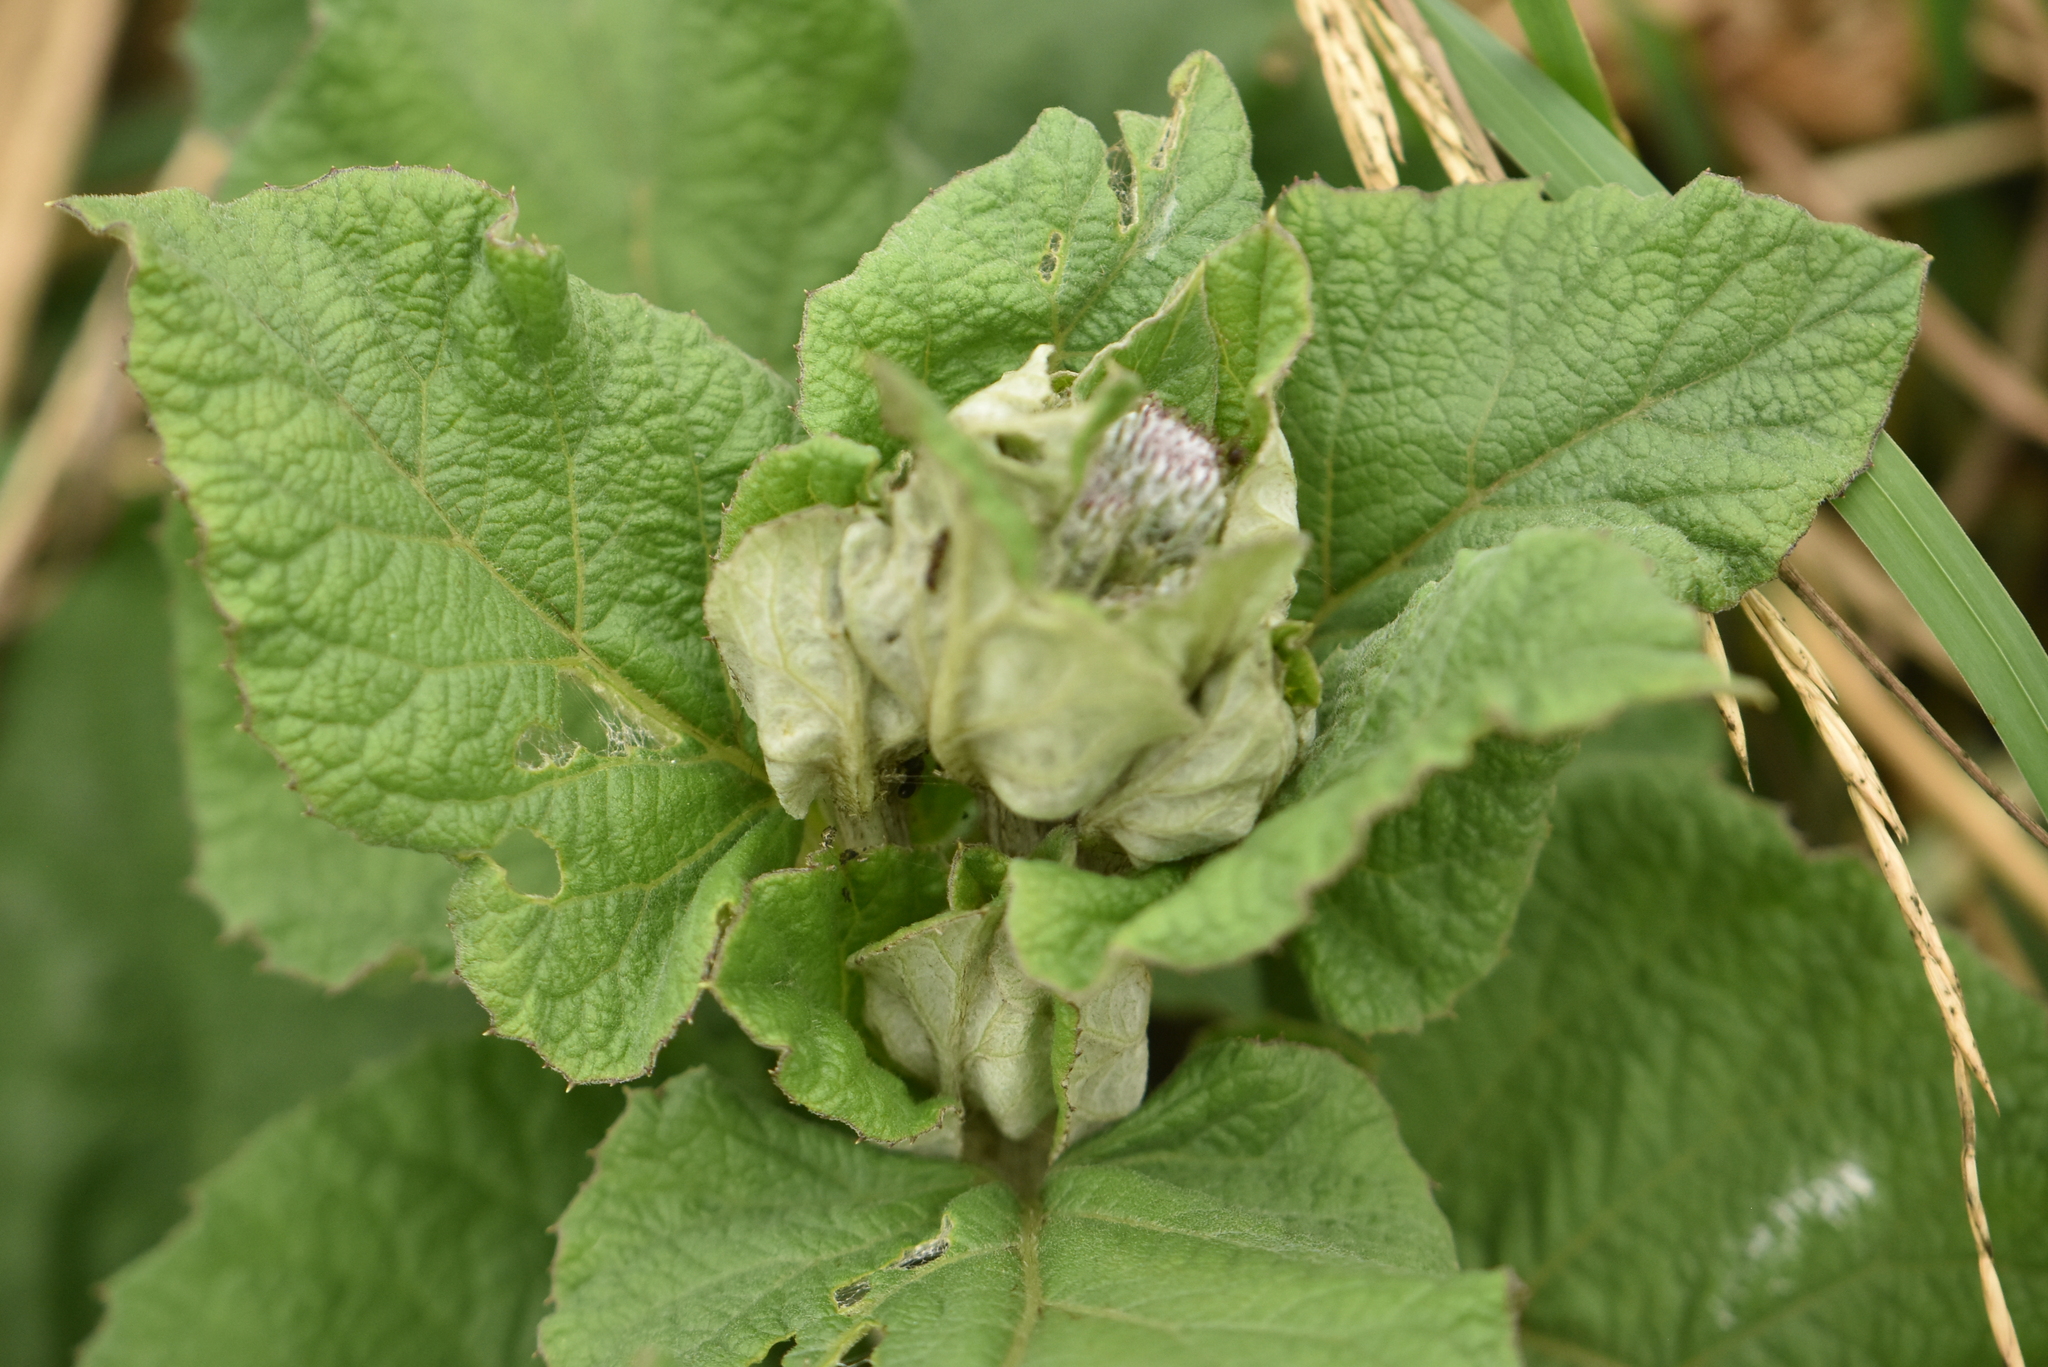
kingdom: Plantae
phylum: Tracheophyta
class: Magnoliopsida
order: Asterales
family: Asteraceae
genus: Arctium
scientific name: Arctium tomentosum
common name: Woolly burdock
